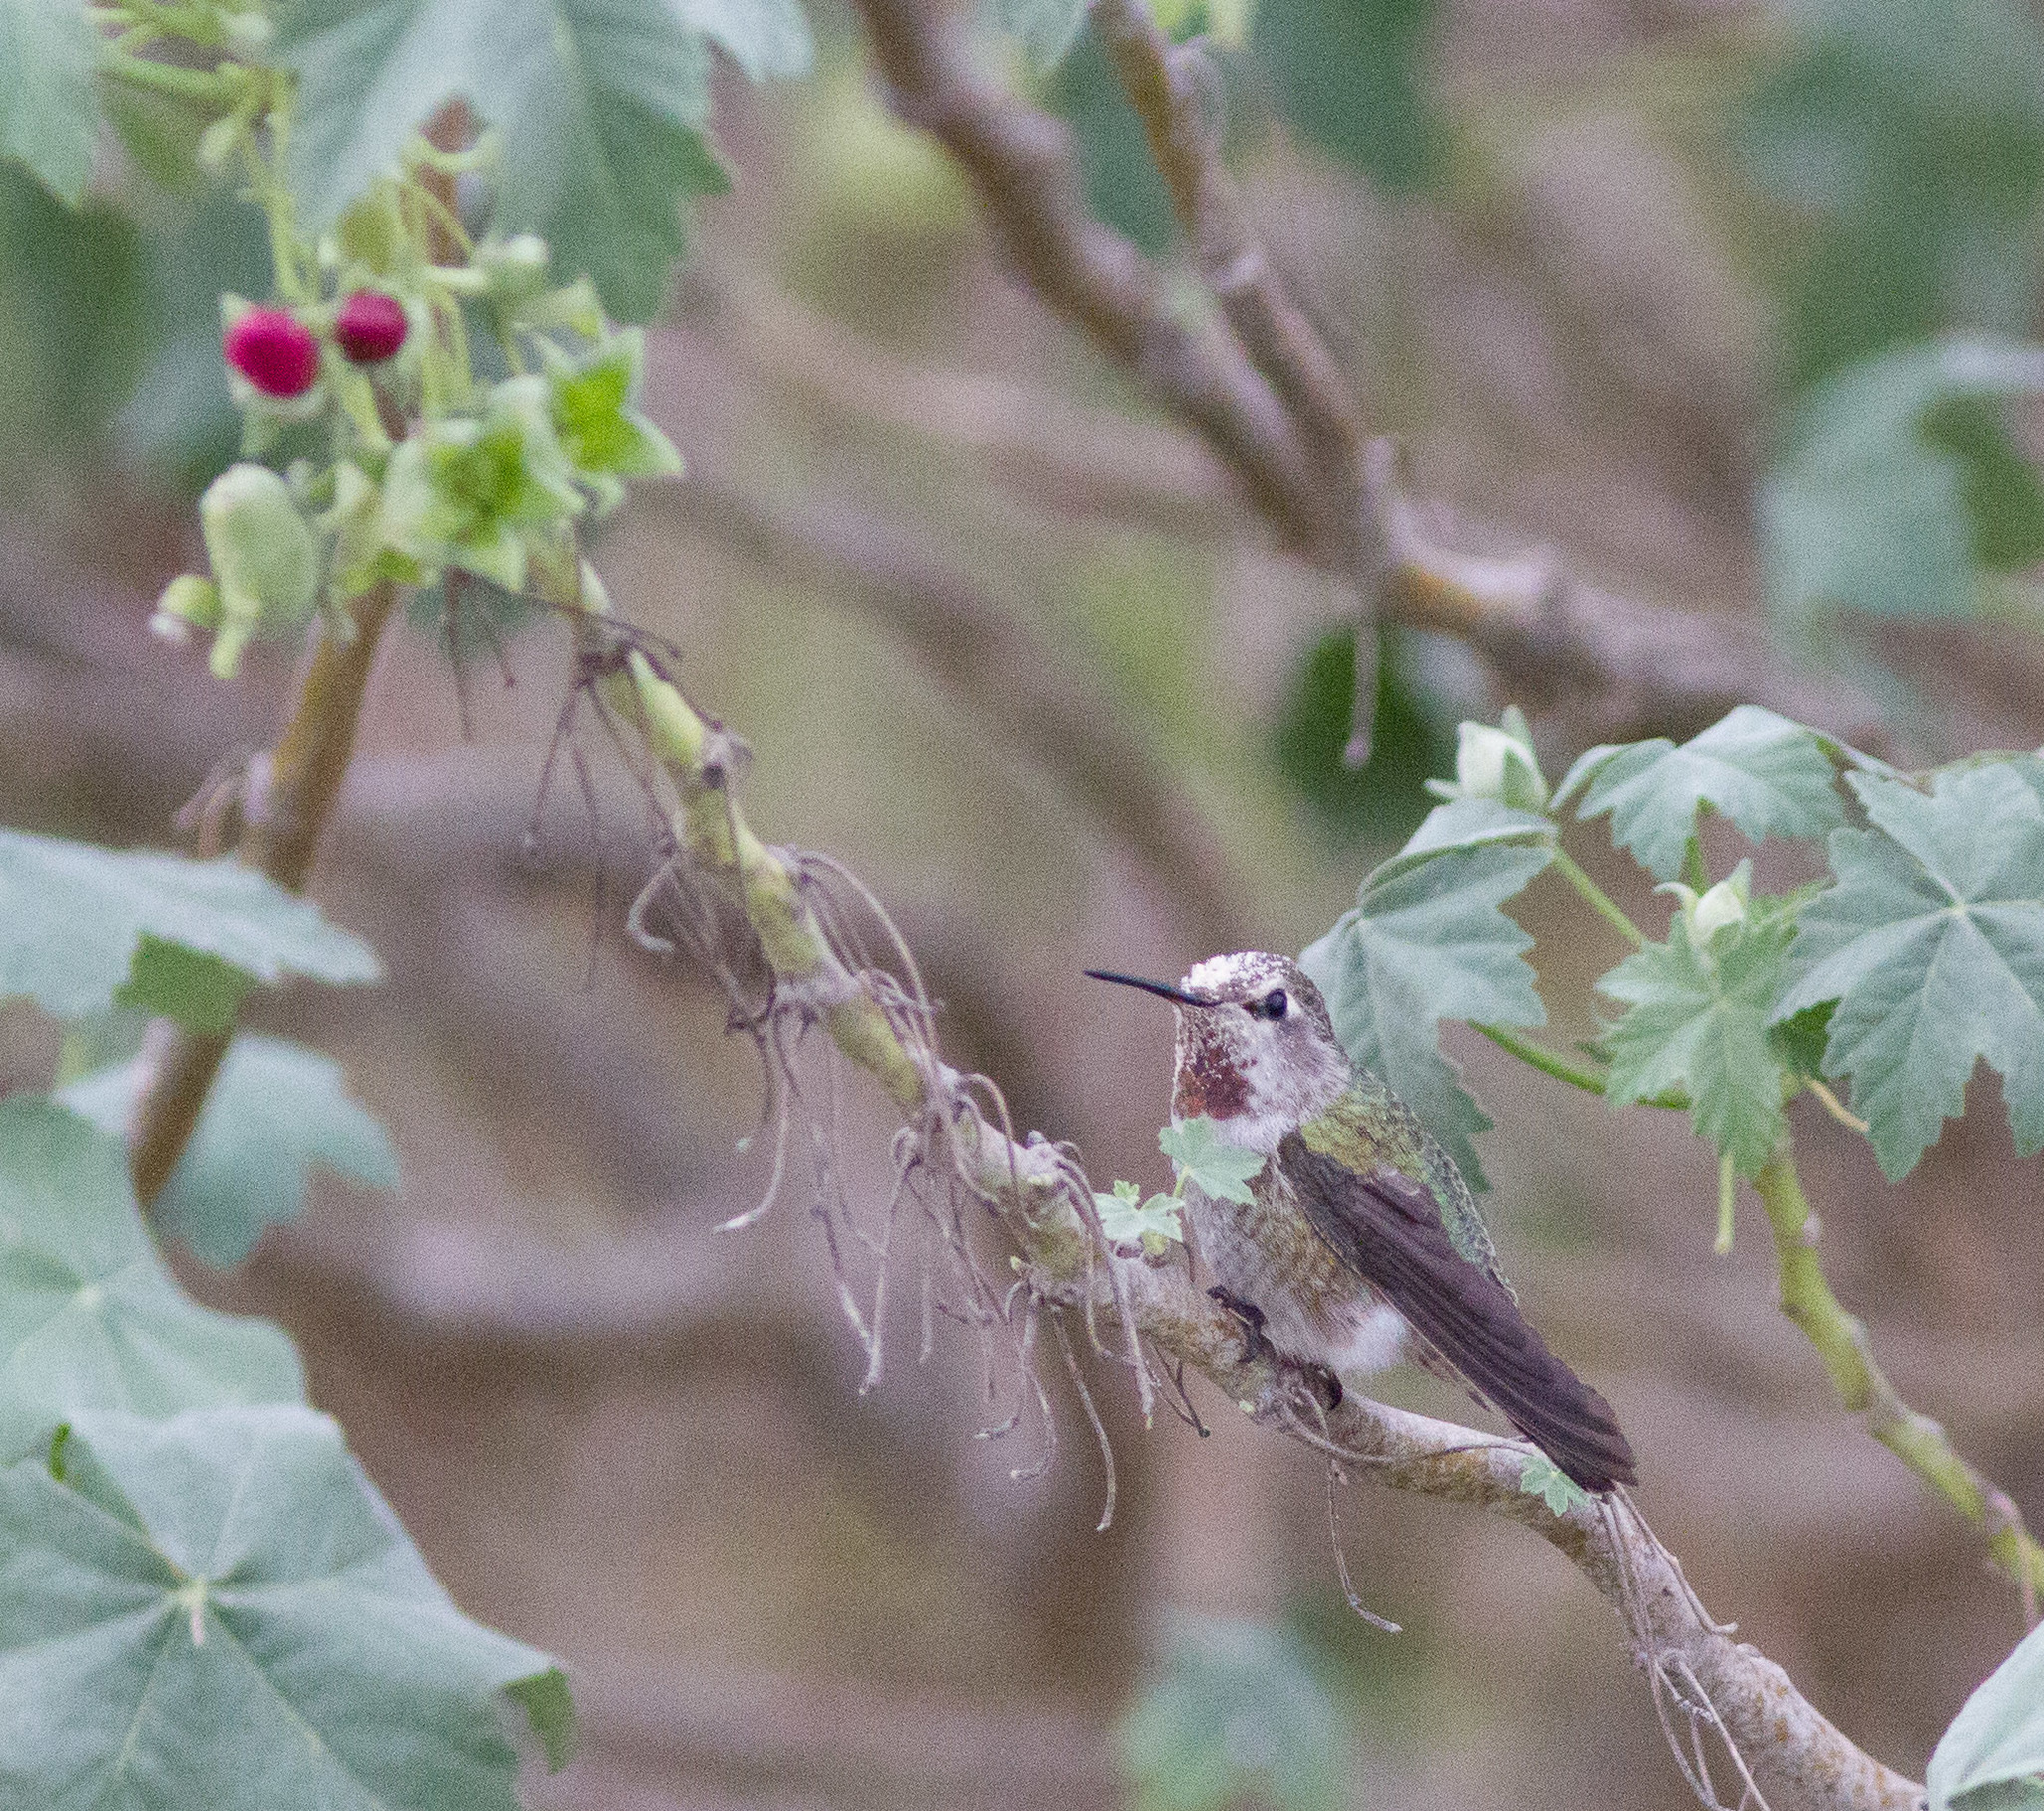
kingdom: Animalia
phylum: Chordata
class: Aves
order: Apodiformes
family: Trochilidae
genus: Calypte
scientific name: Calypte anna
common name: Anna's hummingbird
